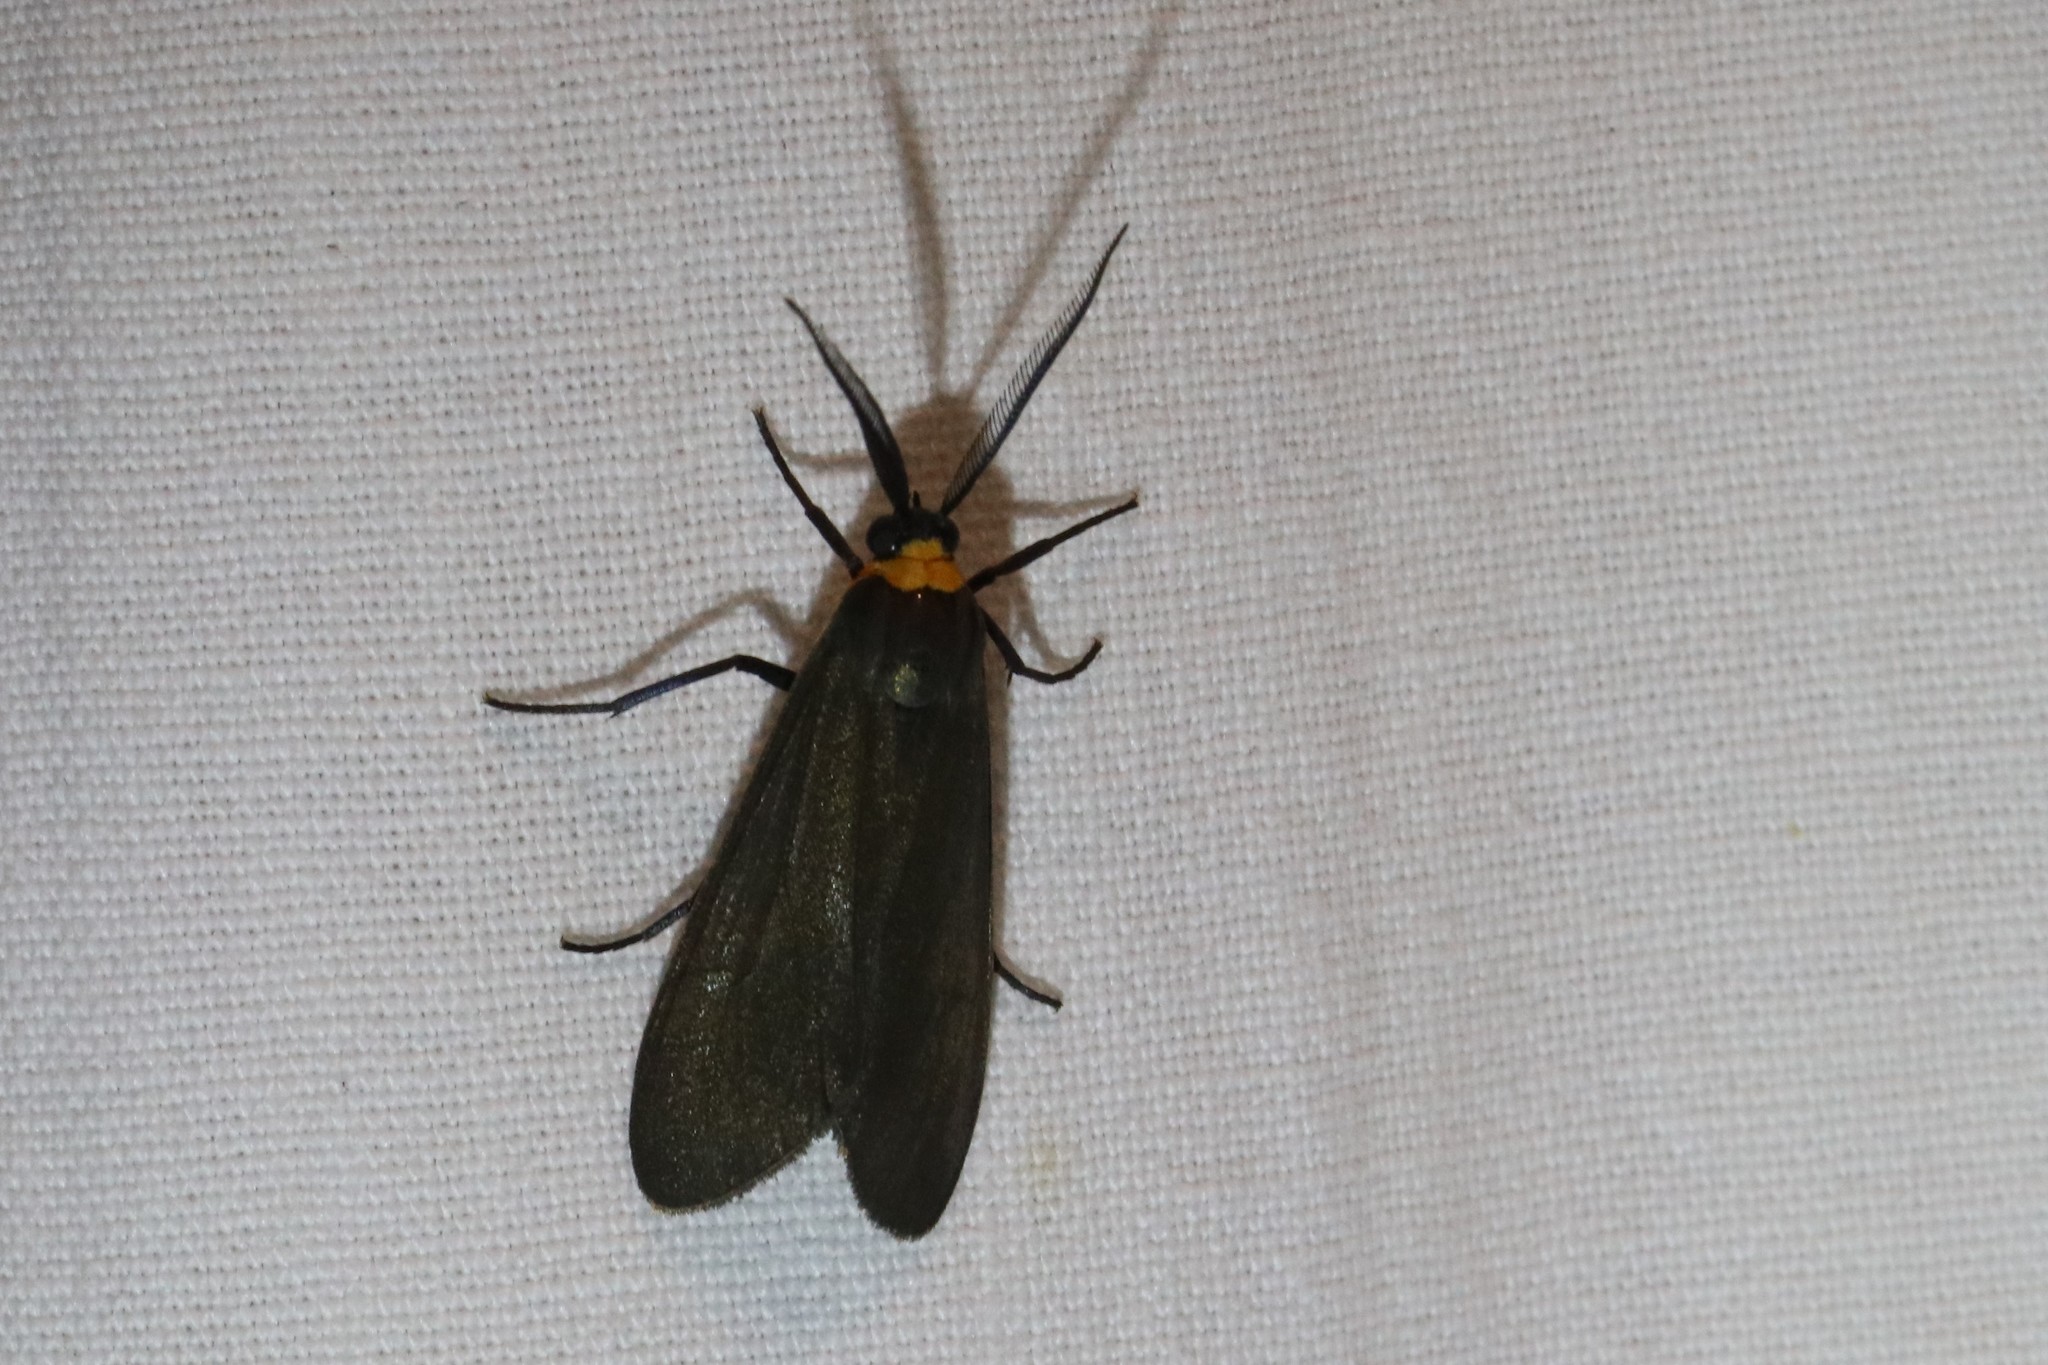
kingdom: Animalia
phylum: Arthropoda
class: Insecta
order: Lepidoptera
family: Erebidae
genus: Cisseps
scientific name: Cisseps fulvicollis
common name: Yellow-collared scape moth
